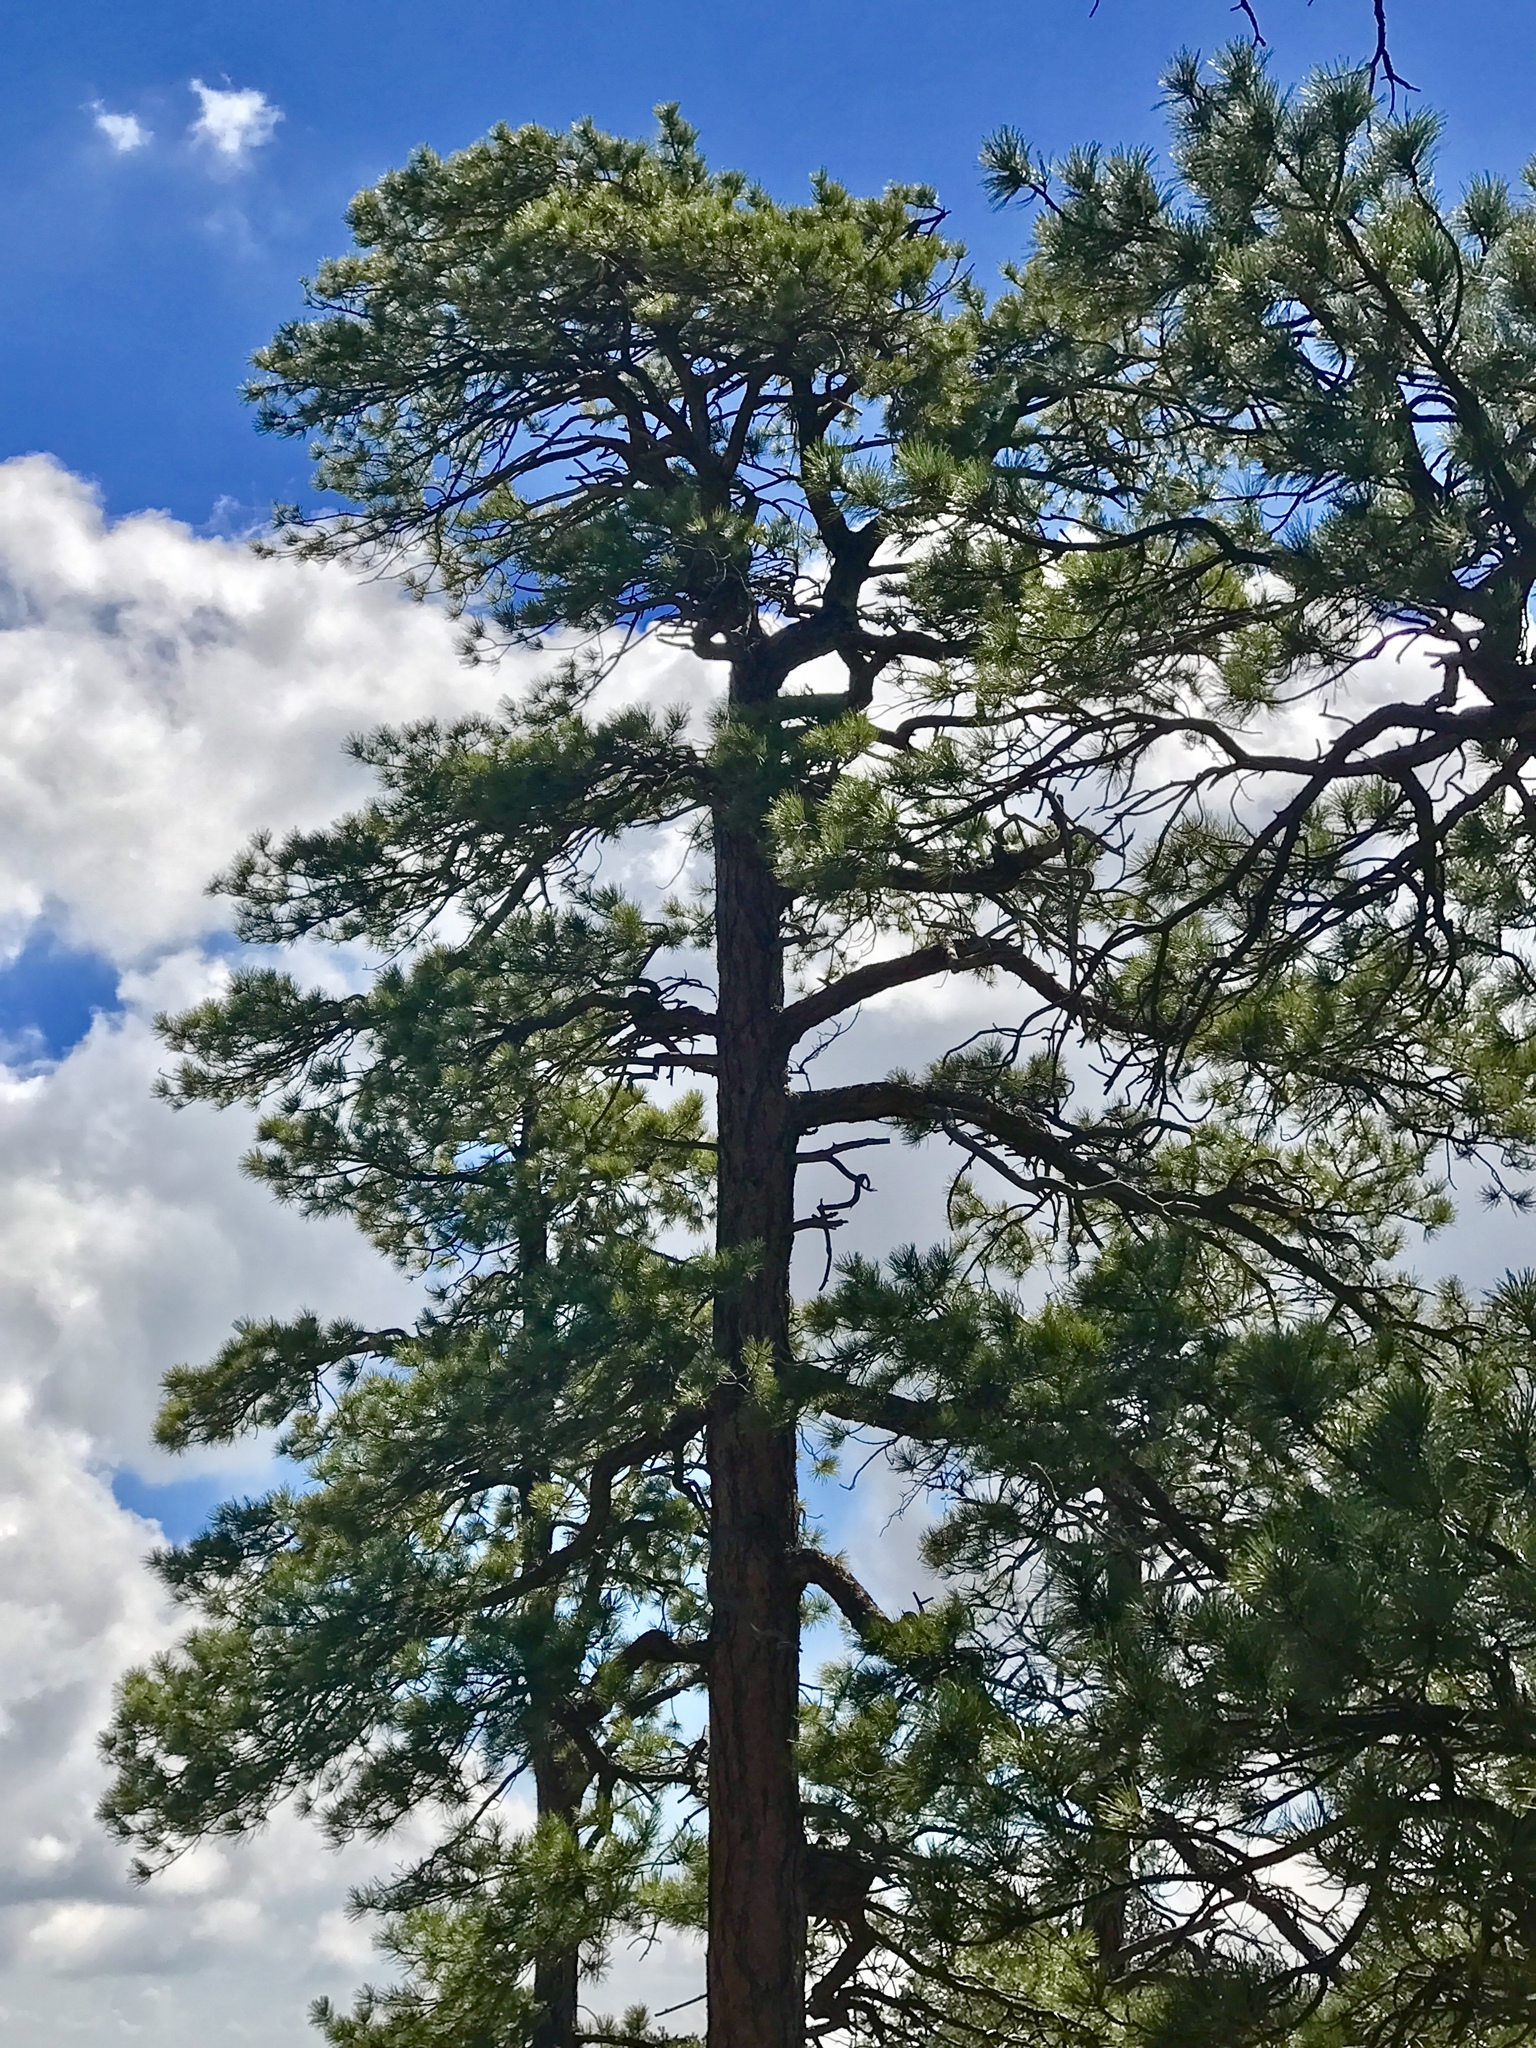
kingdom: Plantae
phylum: Tracheophyta
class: Pinopsida
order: Pinales
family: Pinaceae
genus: Pinus
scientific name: Pinus ponderosa
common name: Western yellow-pine
